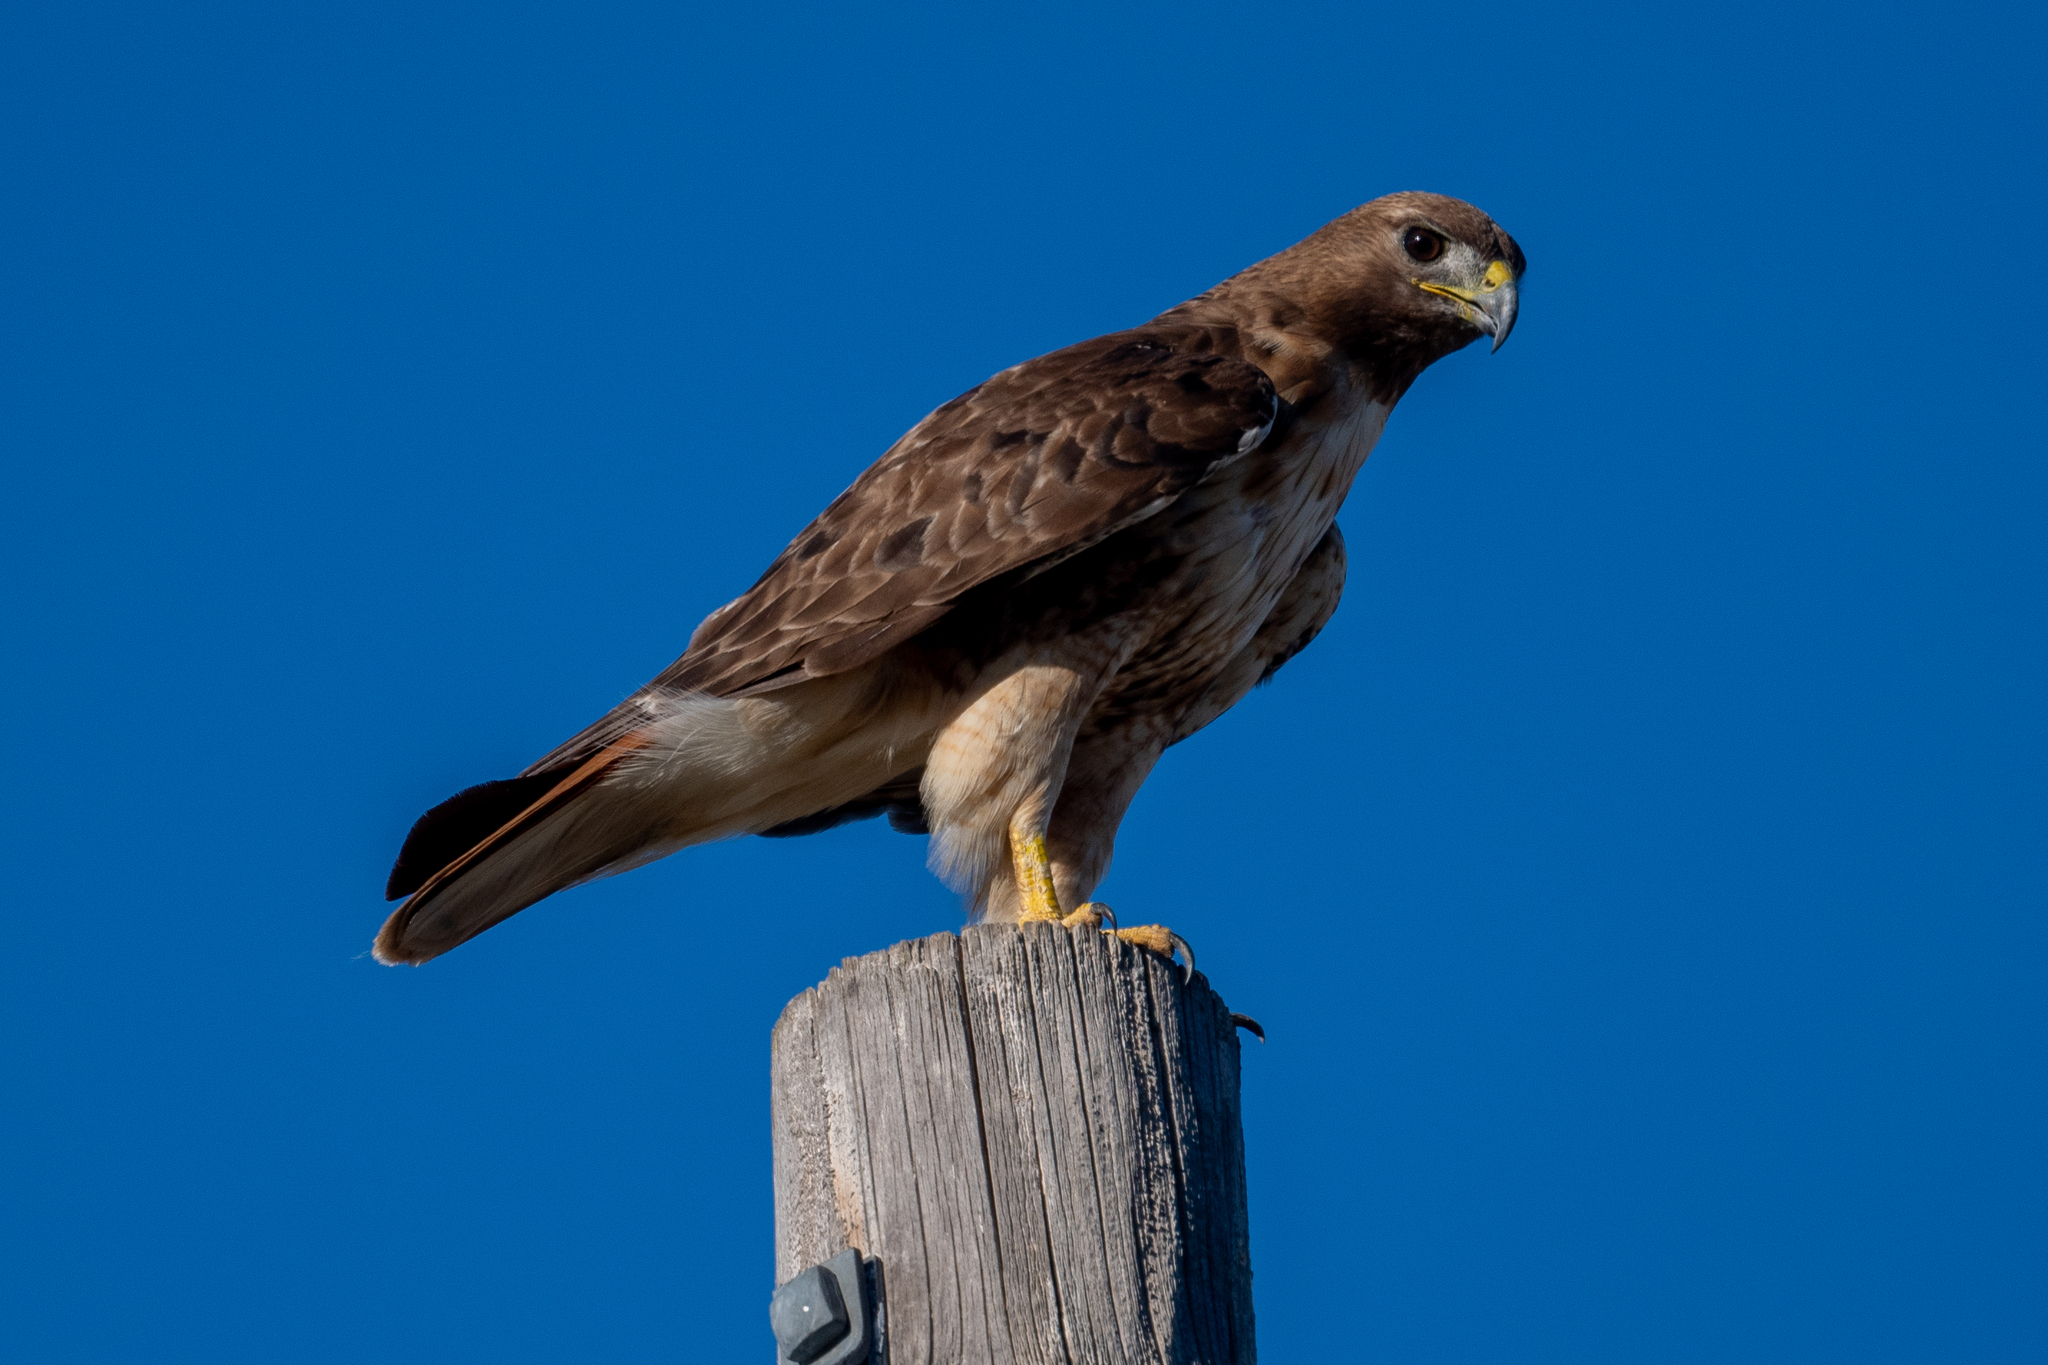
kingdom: Animalia
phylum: Chordata
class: Aves
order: Accipitriformes
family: Accipitridae
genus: Buteo
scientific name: Buteo jamaicensis
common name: Red-tailed hawk
